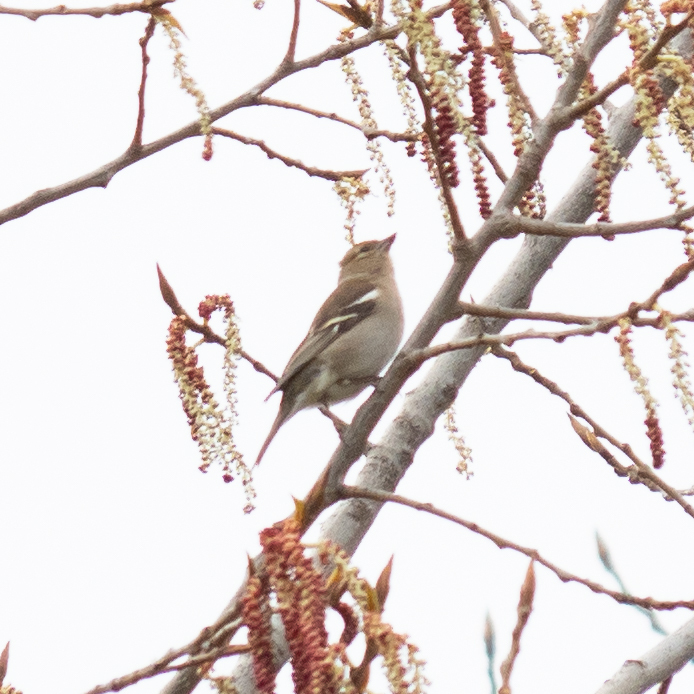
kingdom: Animalia
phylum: Chordata
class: Aves
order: Passeriformes
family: Fringillidae
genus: Fringilla
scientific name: Fringilla coelebs
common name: Common chaffinch
